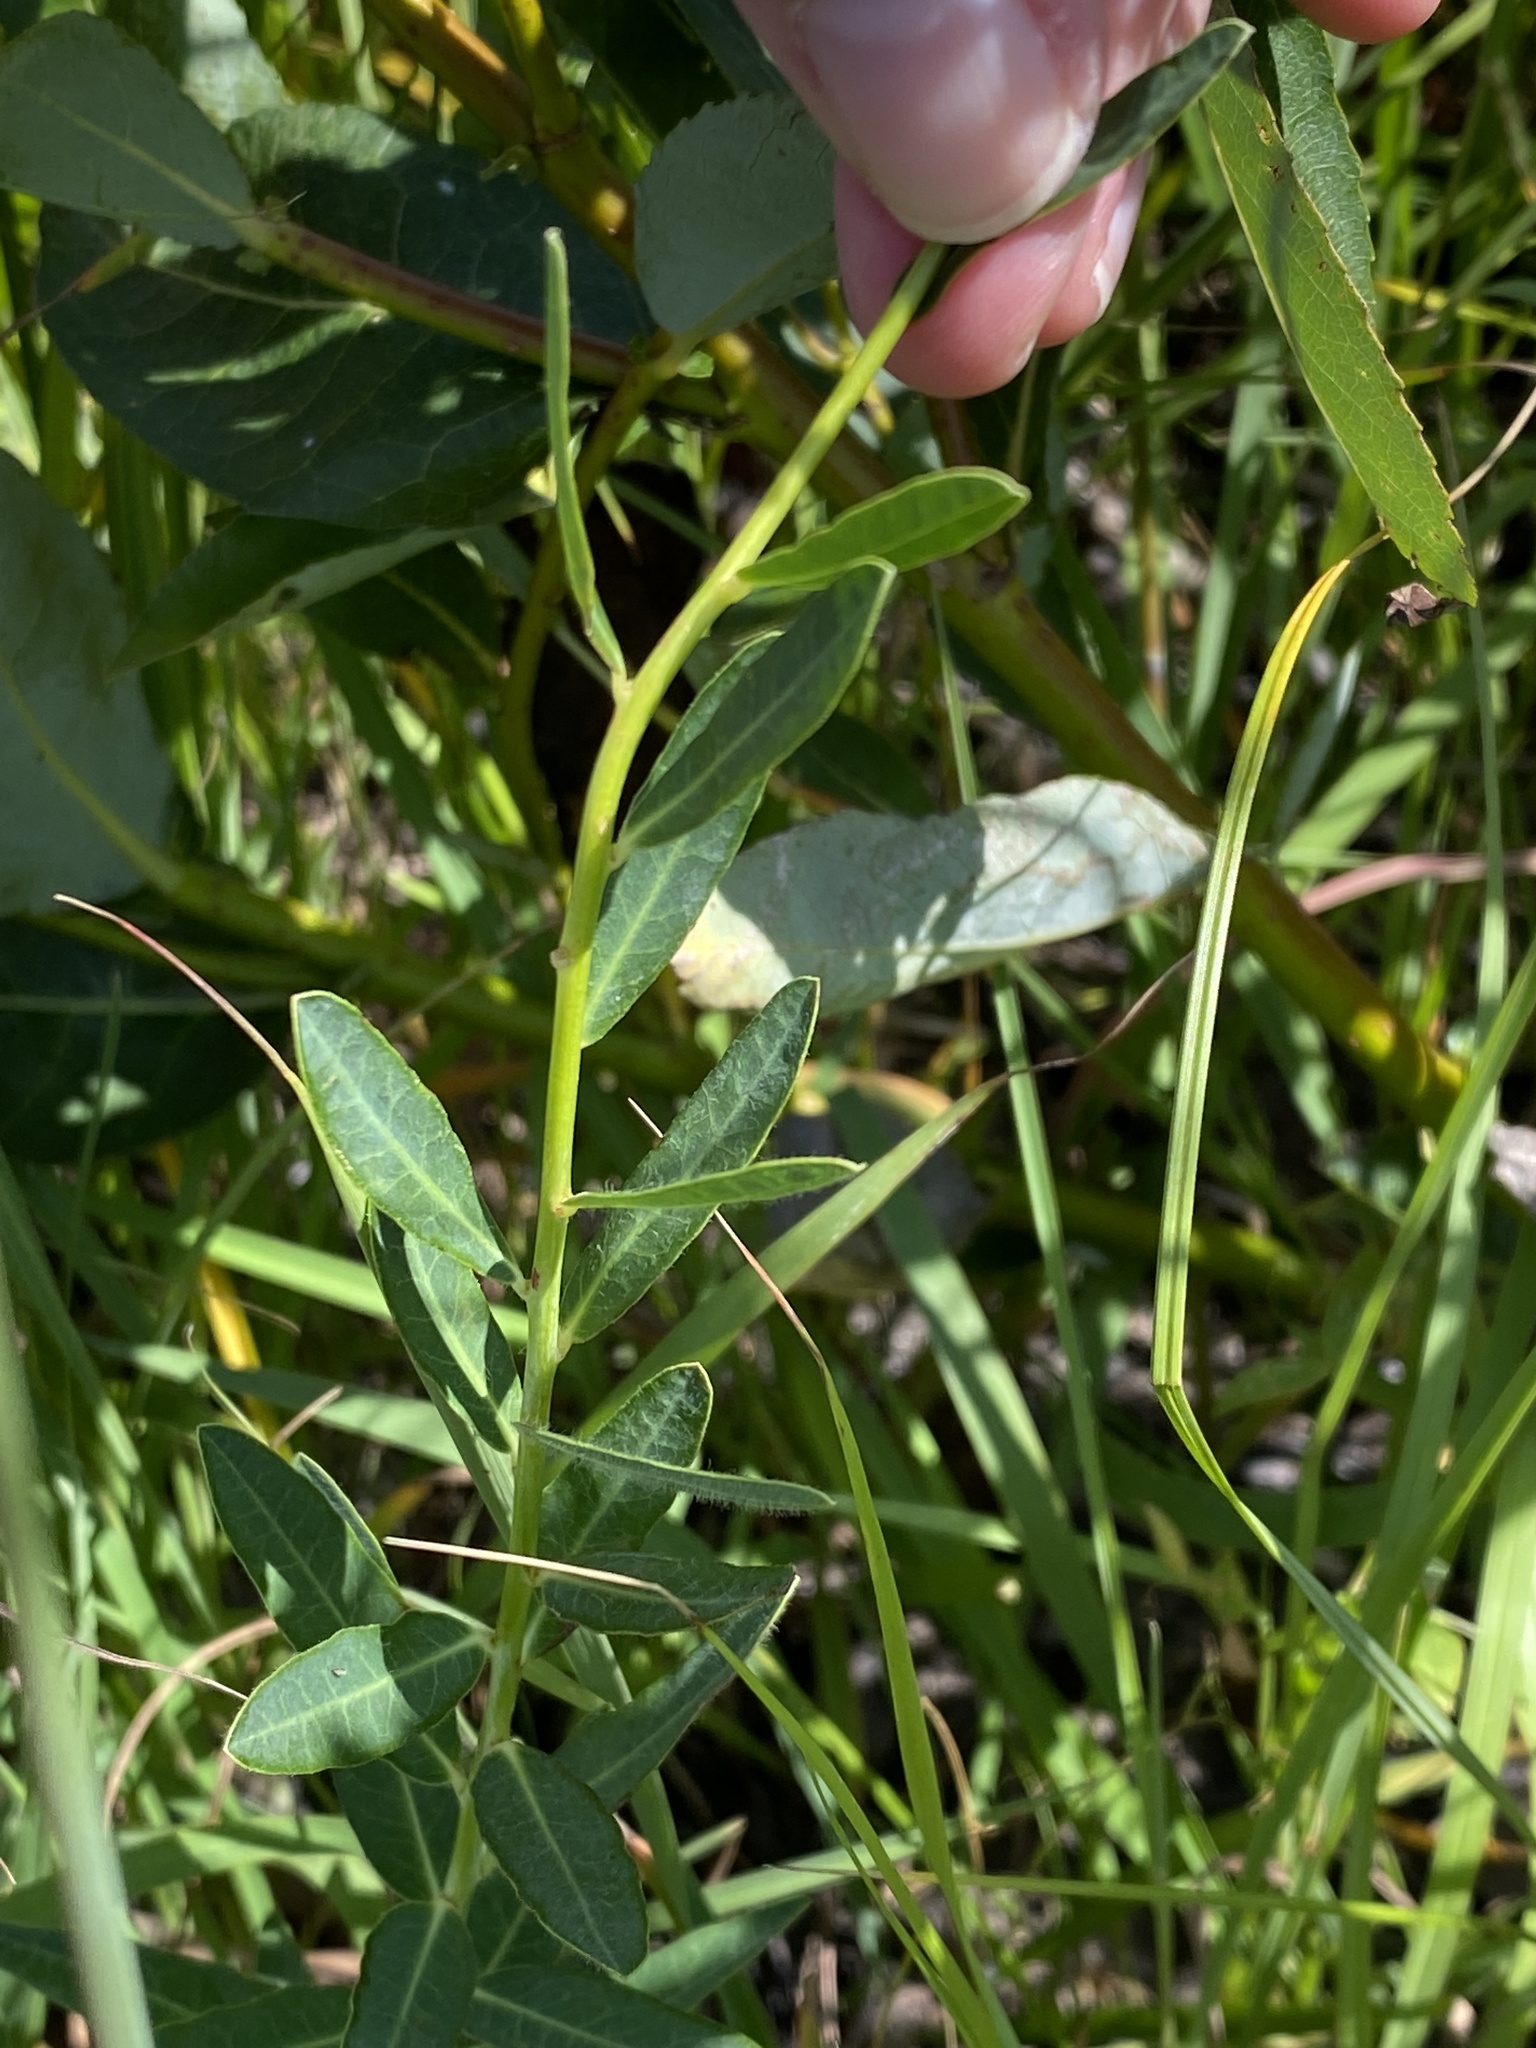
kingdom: Plantae
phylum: Tracheophyta
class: Magnoliopsida
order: Malpighiales
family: Euphorbiaceae
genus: Euphorbia
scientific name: Euphorbia corollata
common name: Flowering spurge
